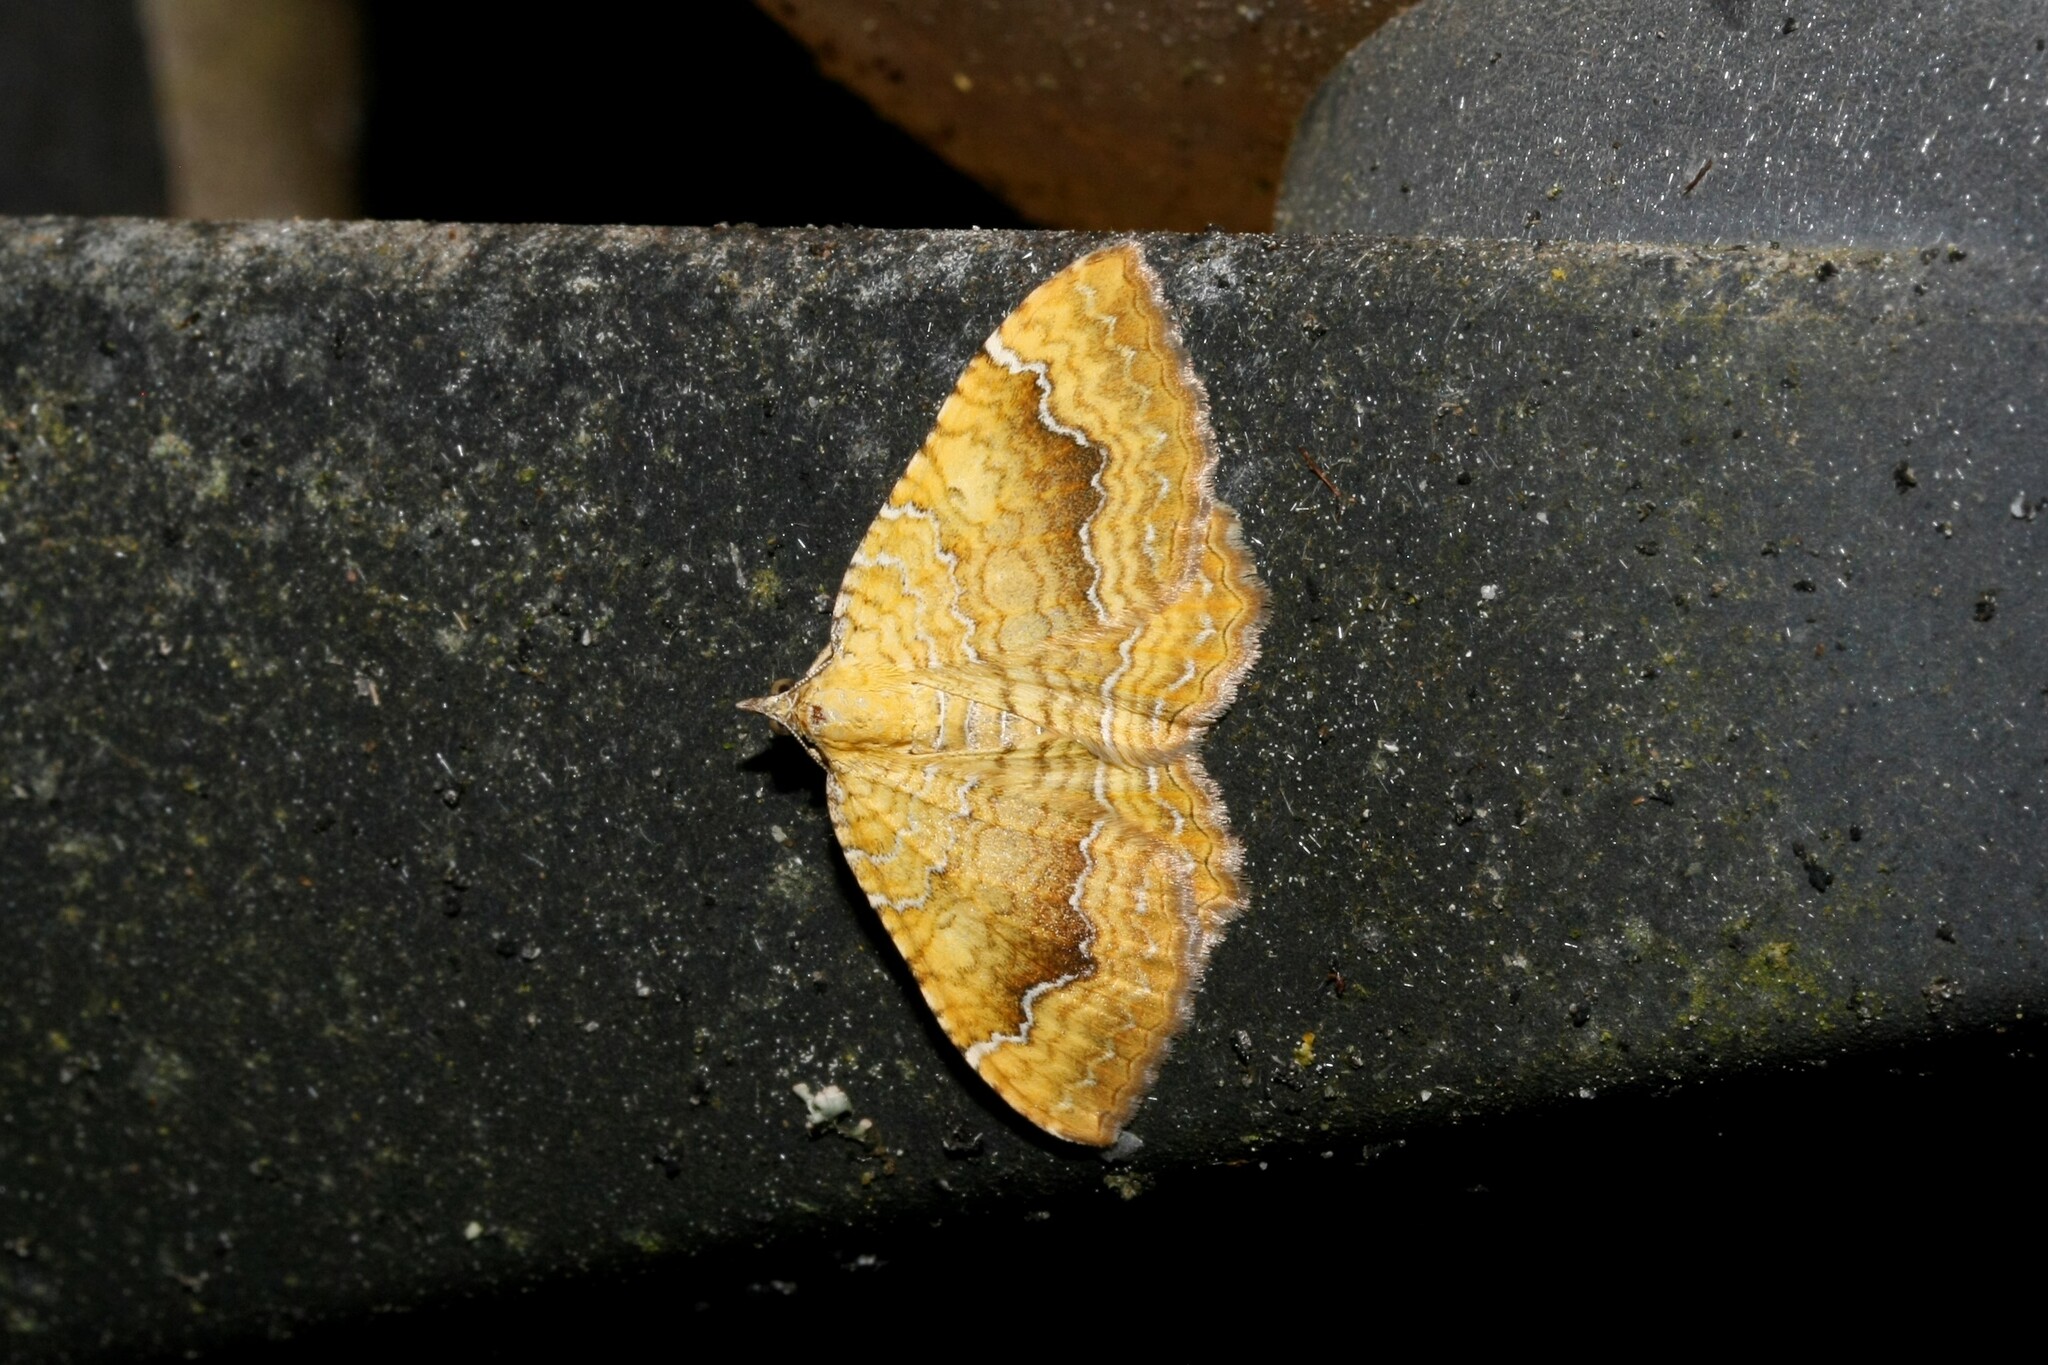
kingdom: Animalia
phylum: Arthropoda
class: Insecta
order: Lepidoptera
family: Geometridae
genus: Camptogramma
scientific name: Camptogramma bilineata
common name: Yellow shell
